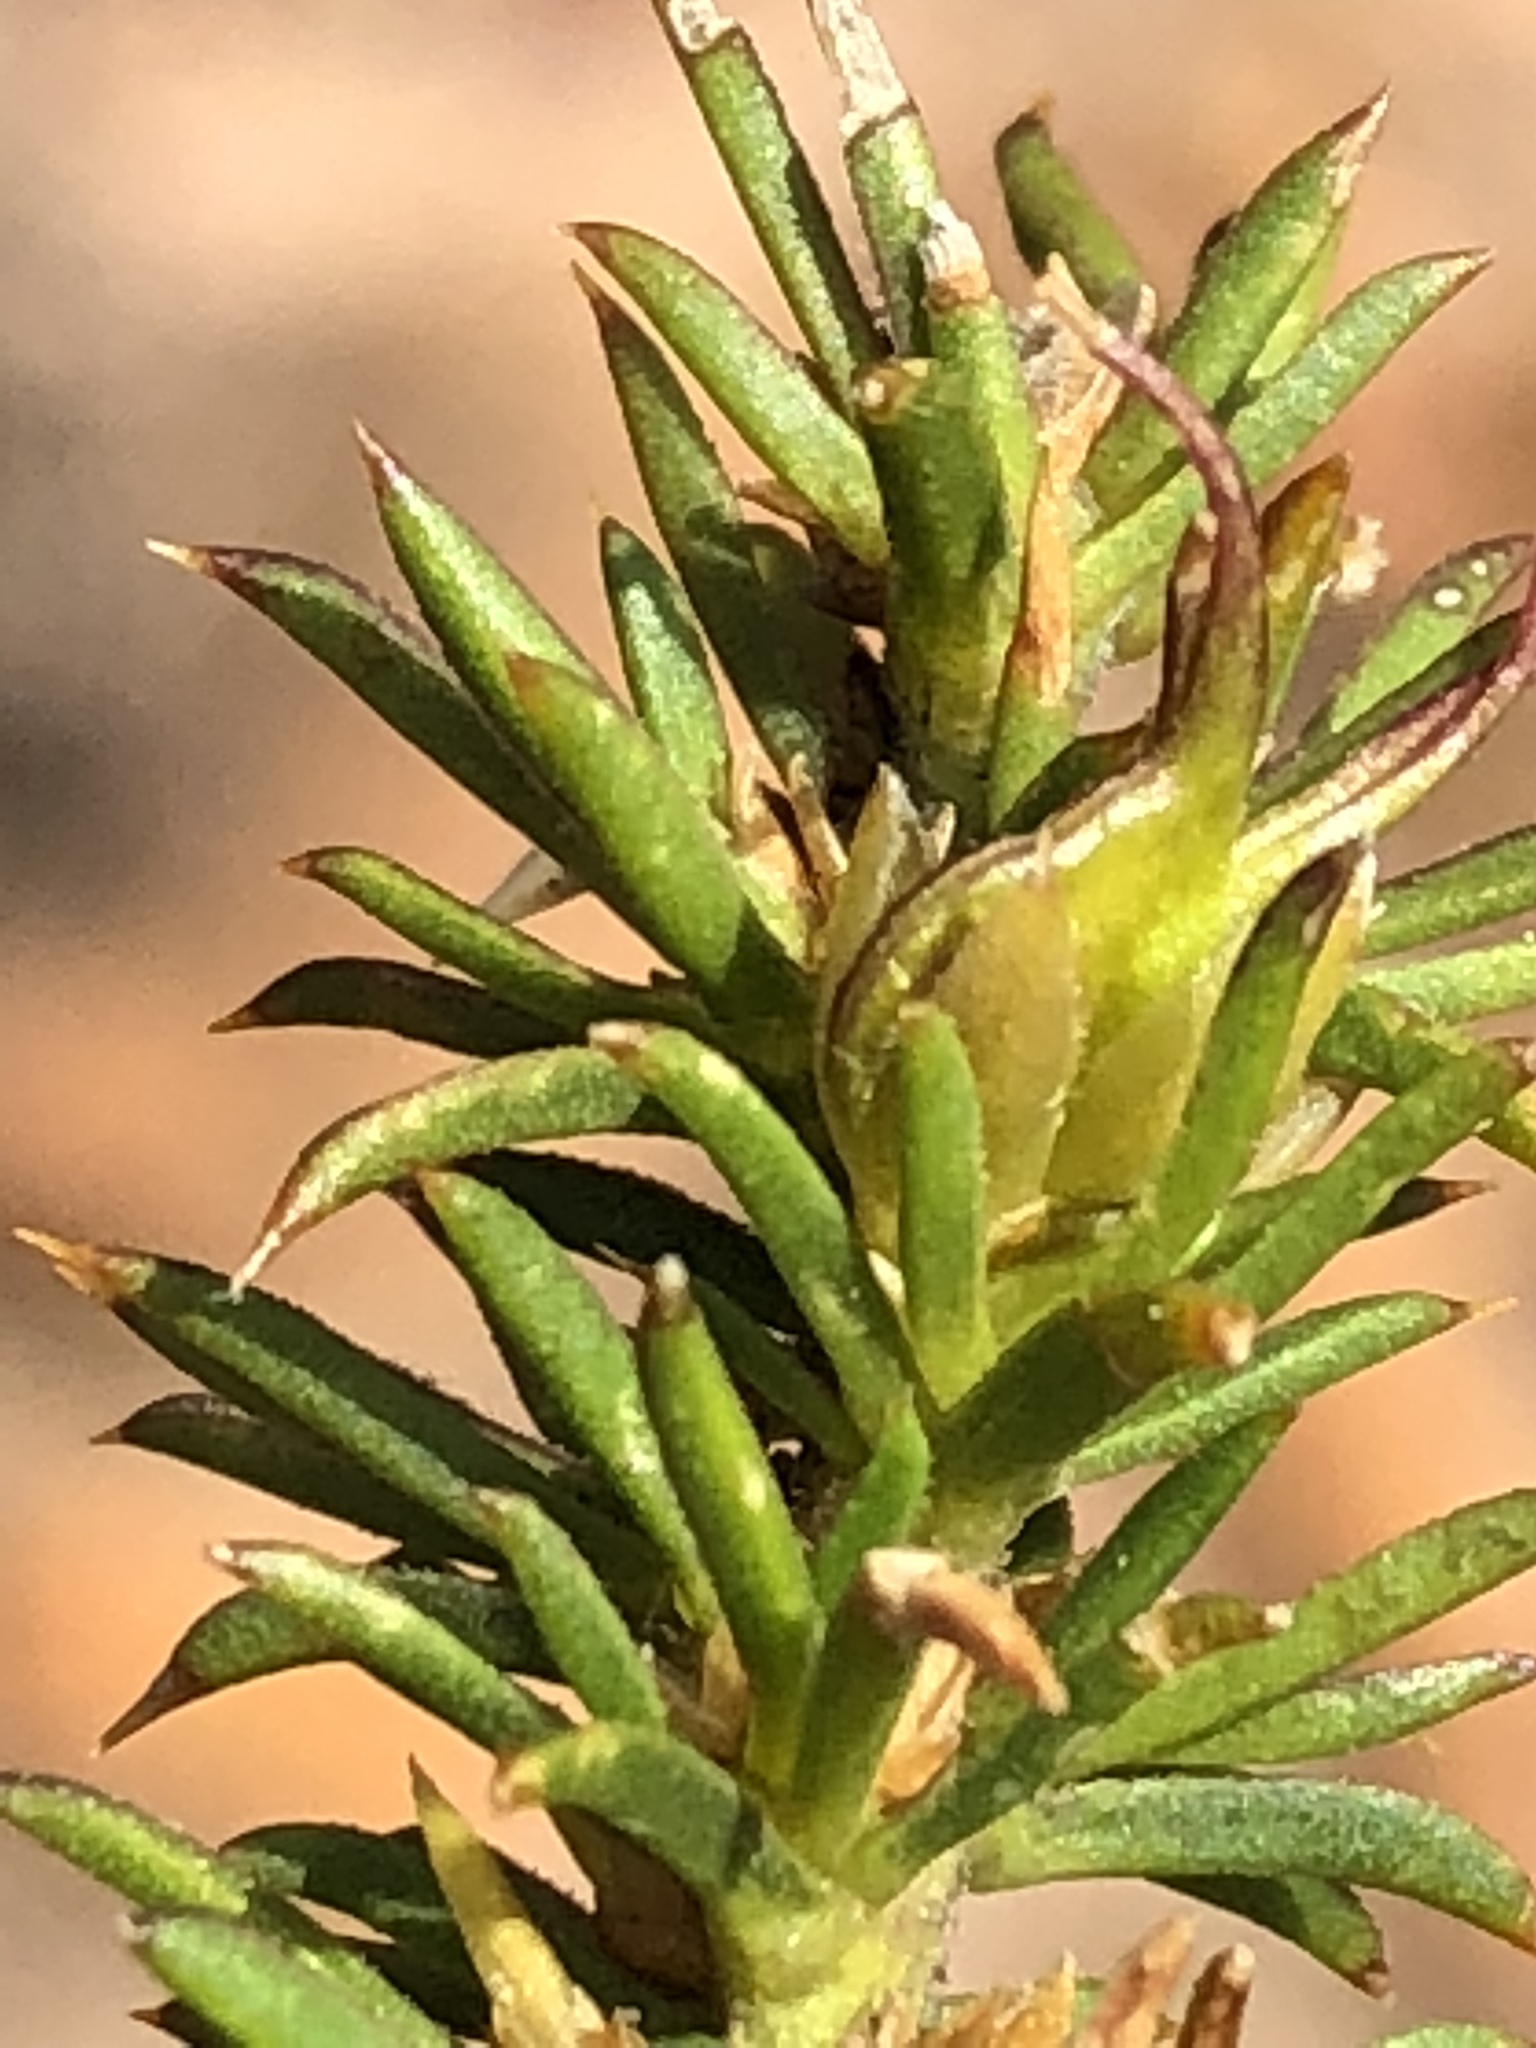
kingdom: Plantae
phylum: Tracheophyta
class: Magnoliopsida
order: Fabales
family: Polygalaceae
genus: Muraltia
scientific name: Muraltia heisteria
